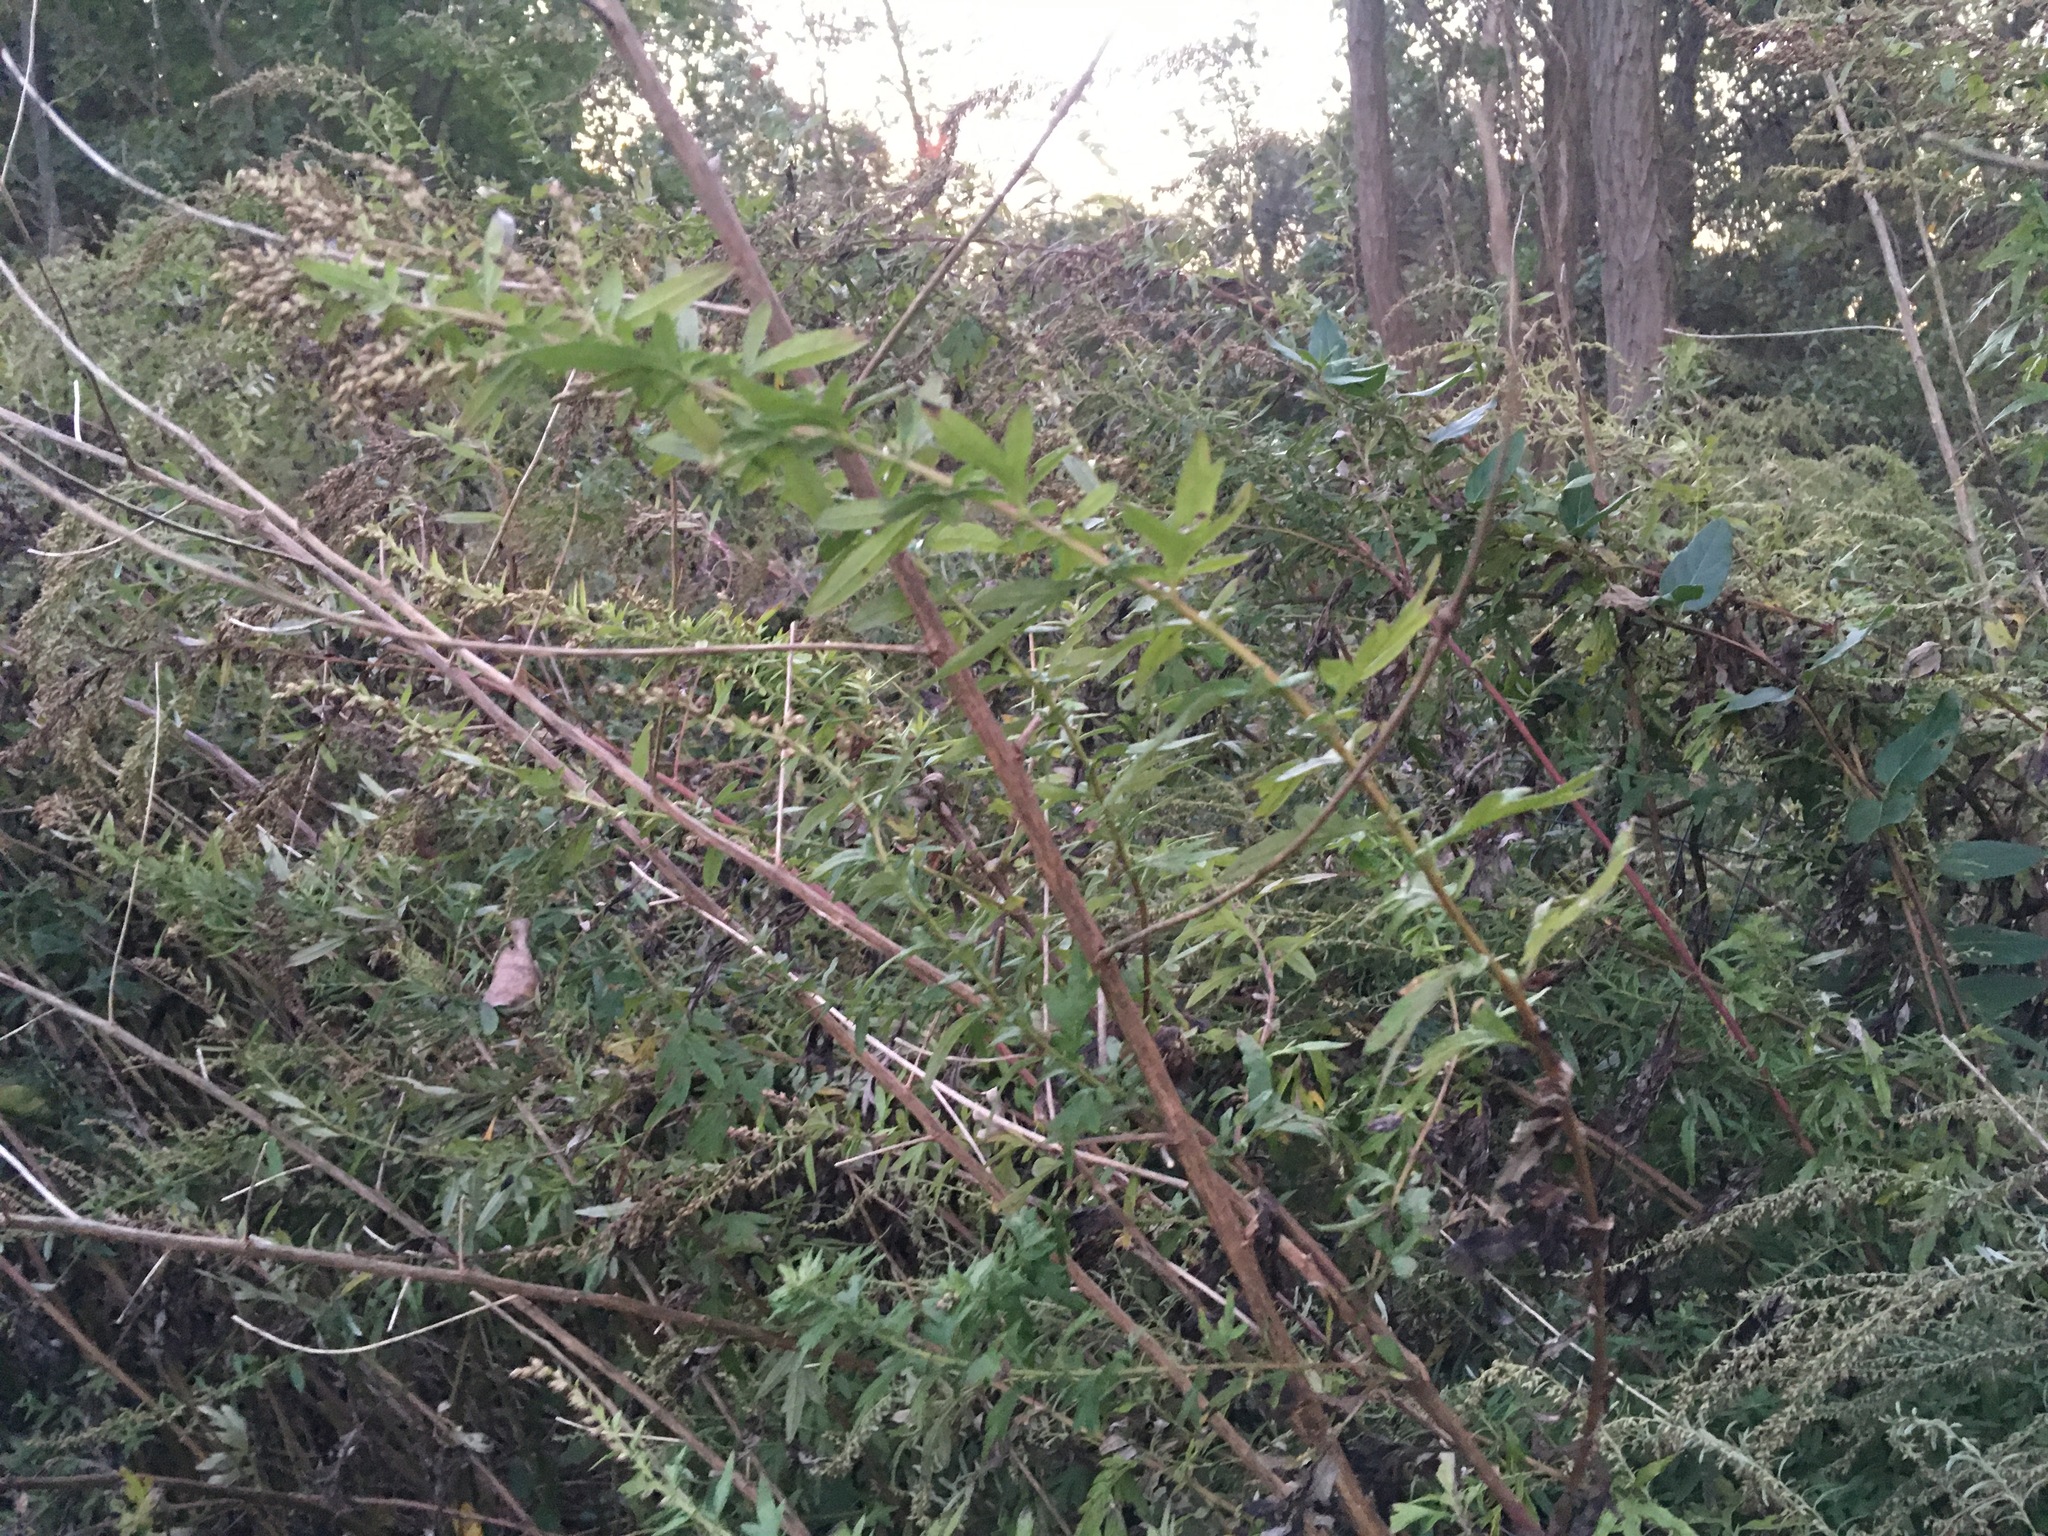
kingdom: Plantae
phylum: Tracheophyta
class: Magnoliopsida
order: Asterales
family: Asteraceae
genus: Artemisia
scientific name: Artemisia vulgaris
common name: Mugwort
